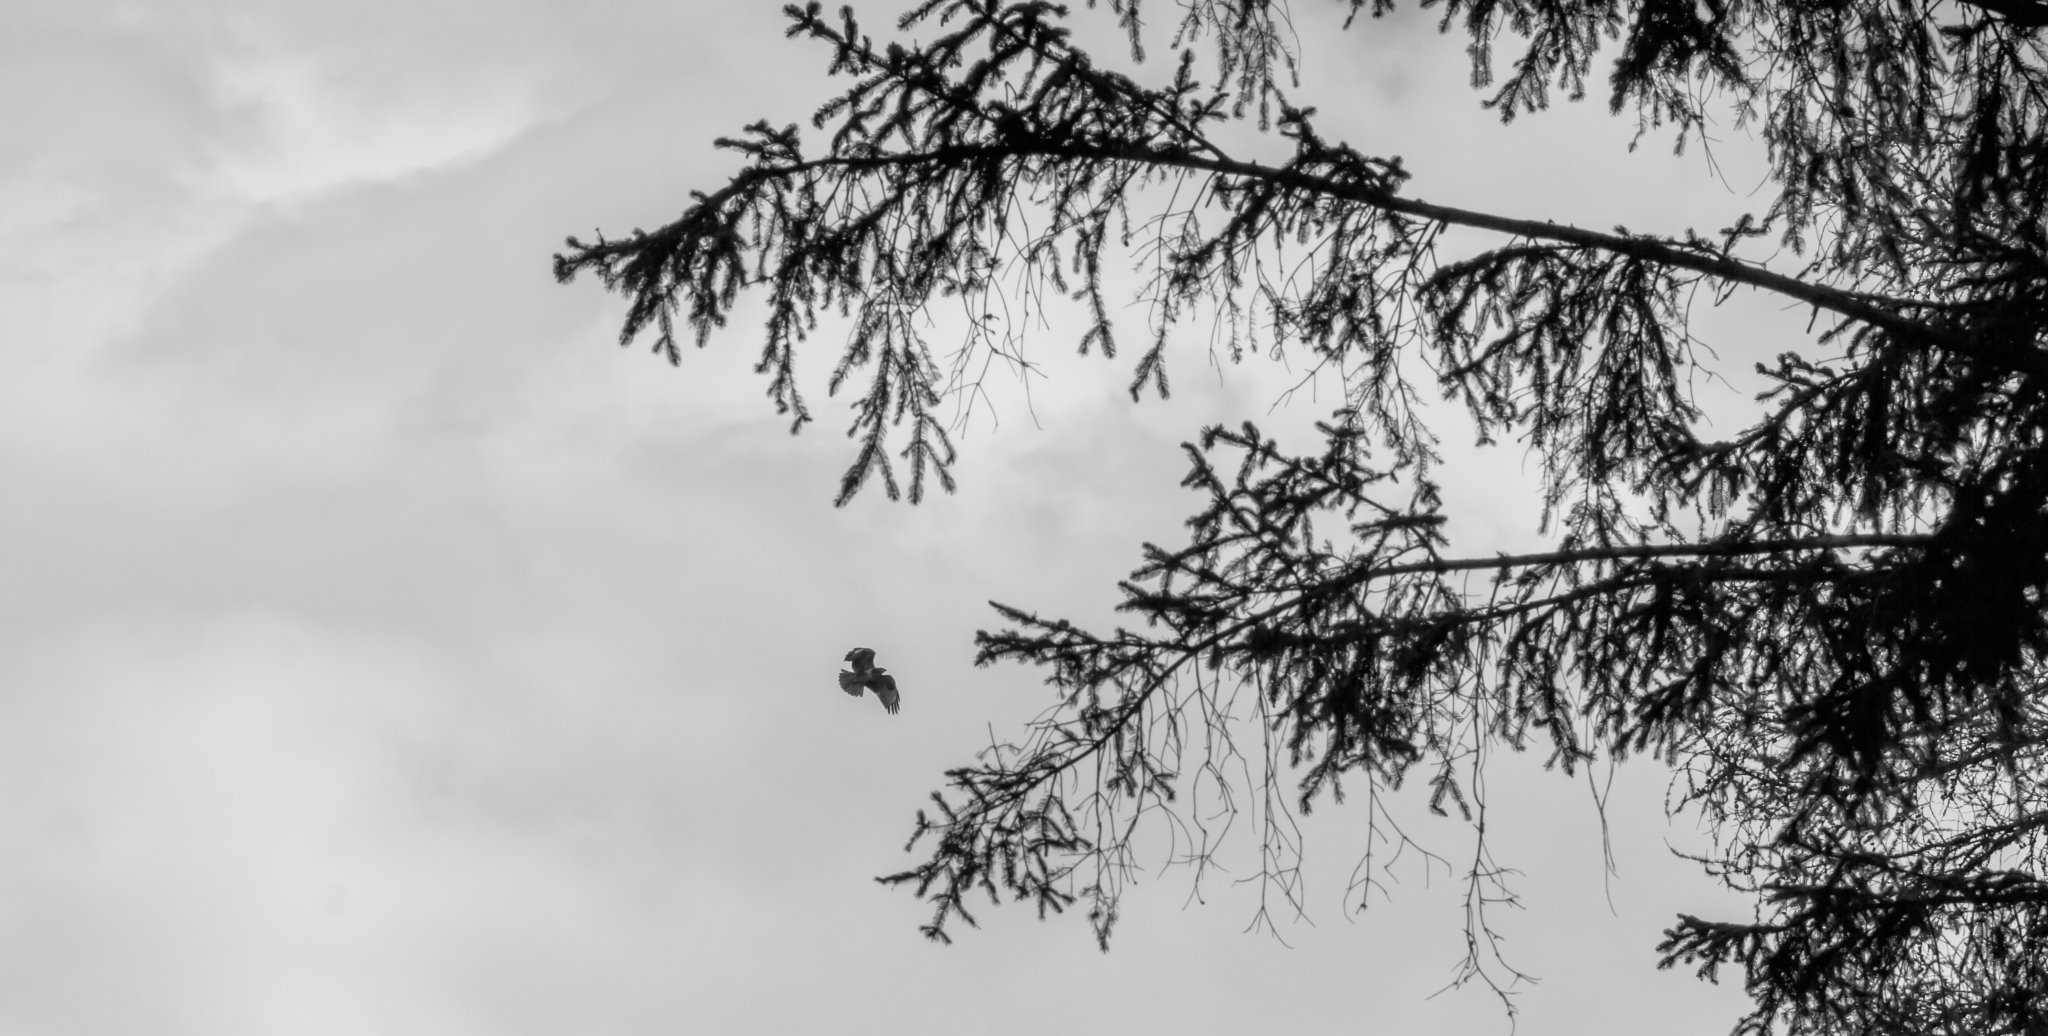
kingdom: Animalia
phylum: Chordata
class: Aves
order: Accipitriformes
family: Accipitridae
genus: Buteo
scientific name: Buteo buteo
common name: Common buzzard
